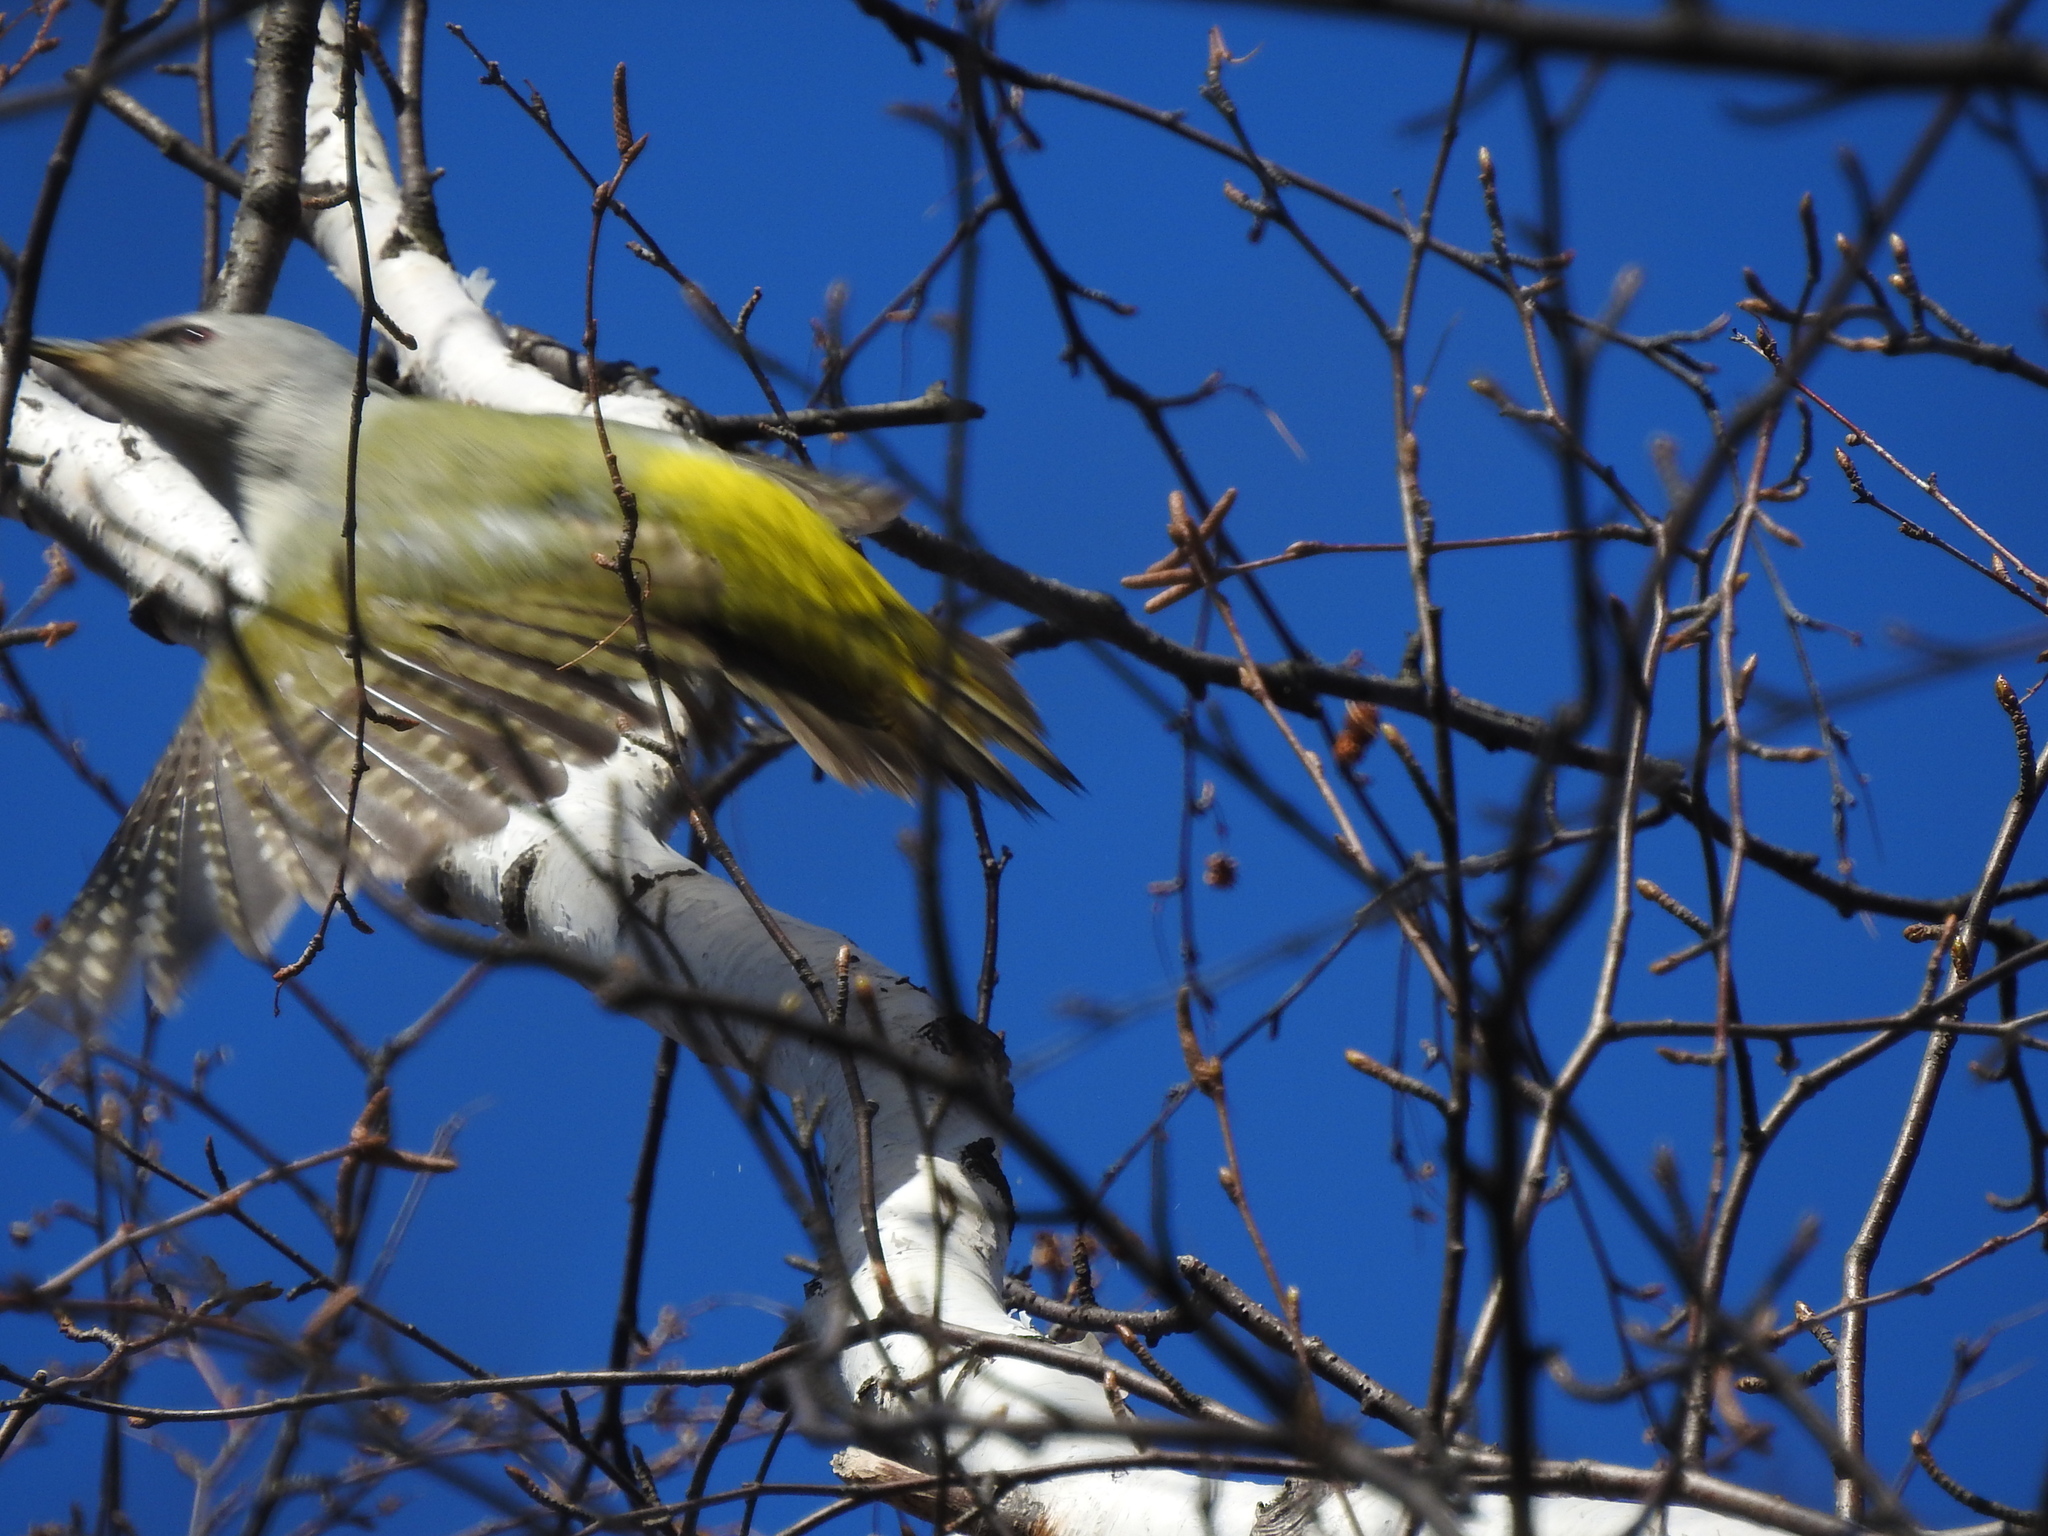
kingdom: Animalia
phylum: Chordata
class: Aves
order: Piciformes
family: Picidae
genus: Picus
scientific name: Picus canus
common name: Grey-headed woodpecker
